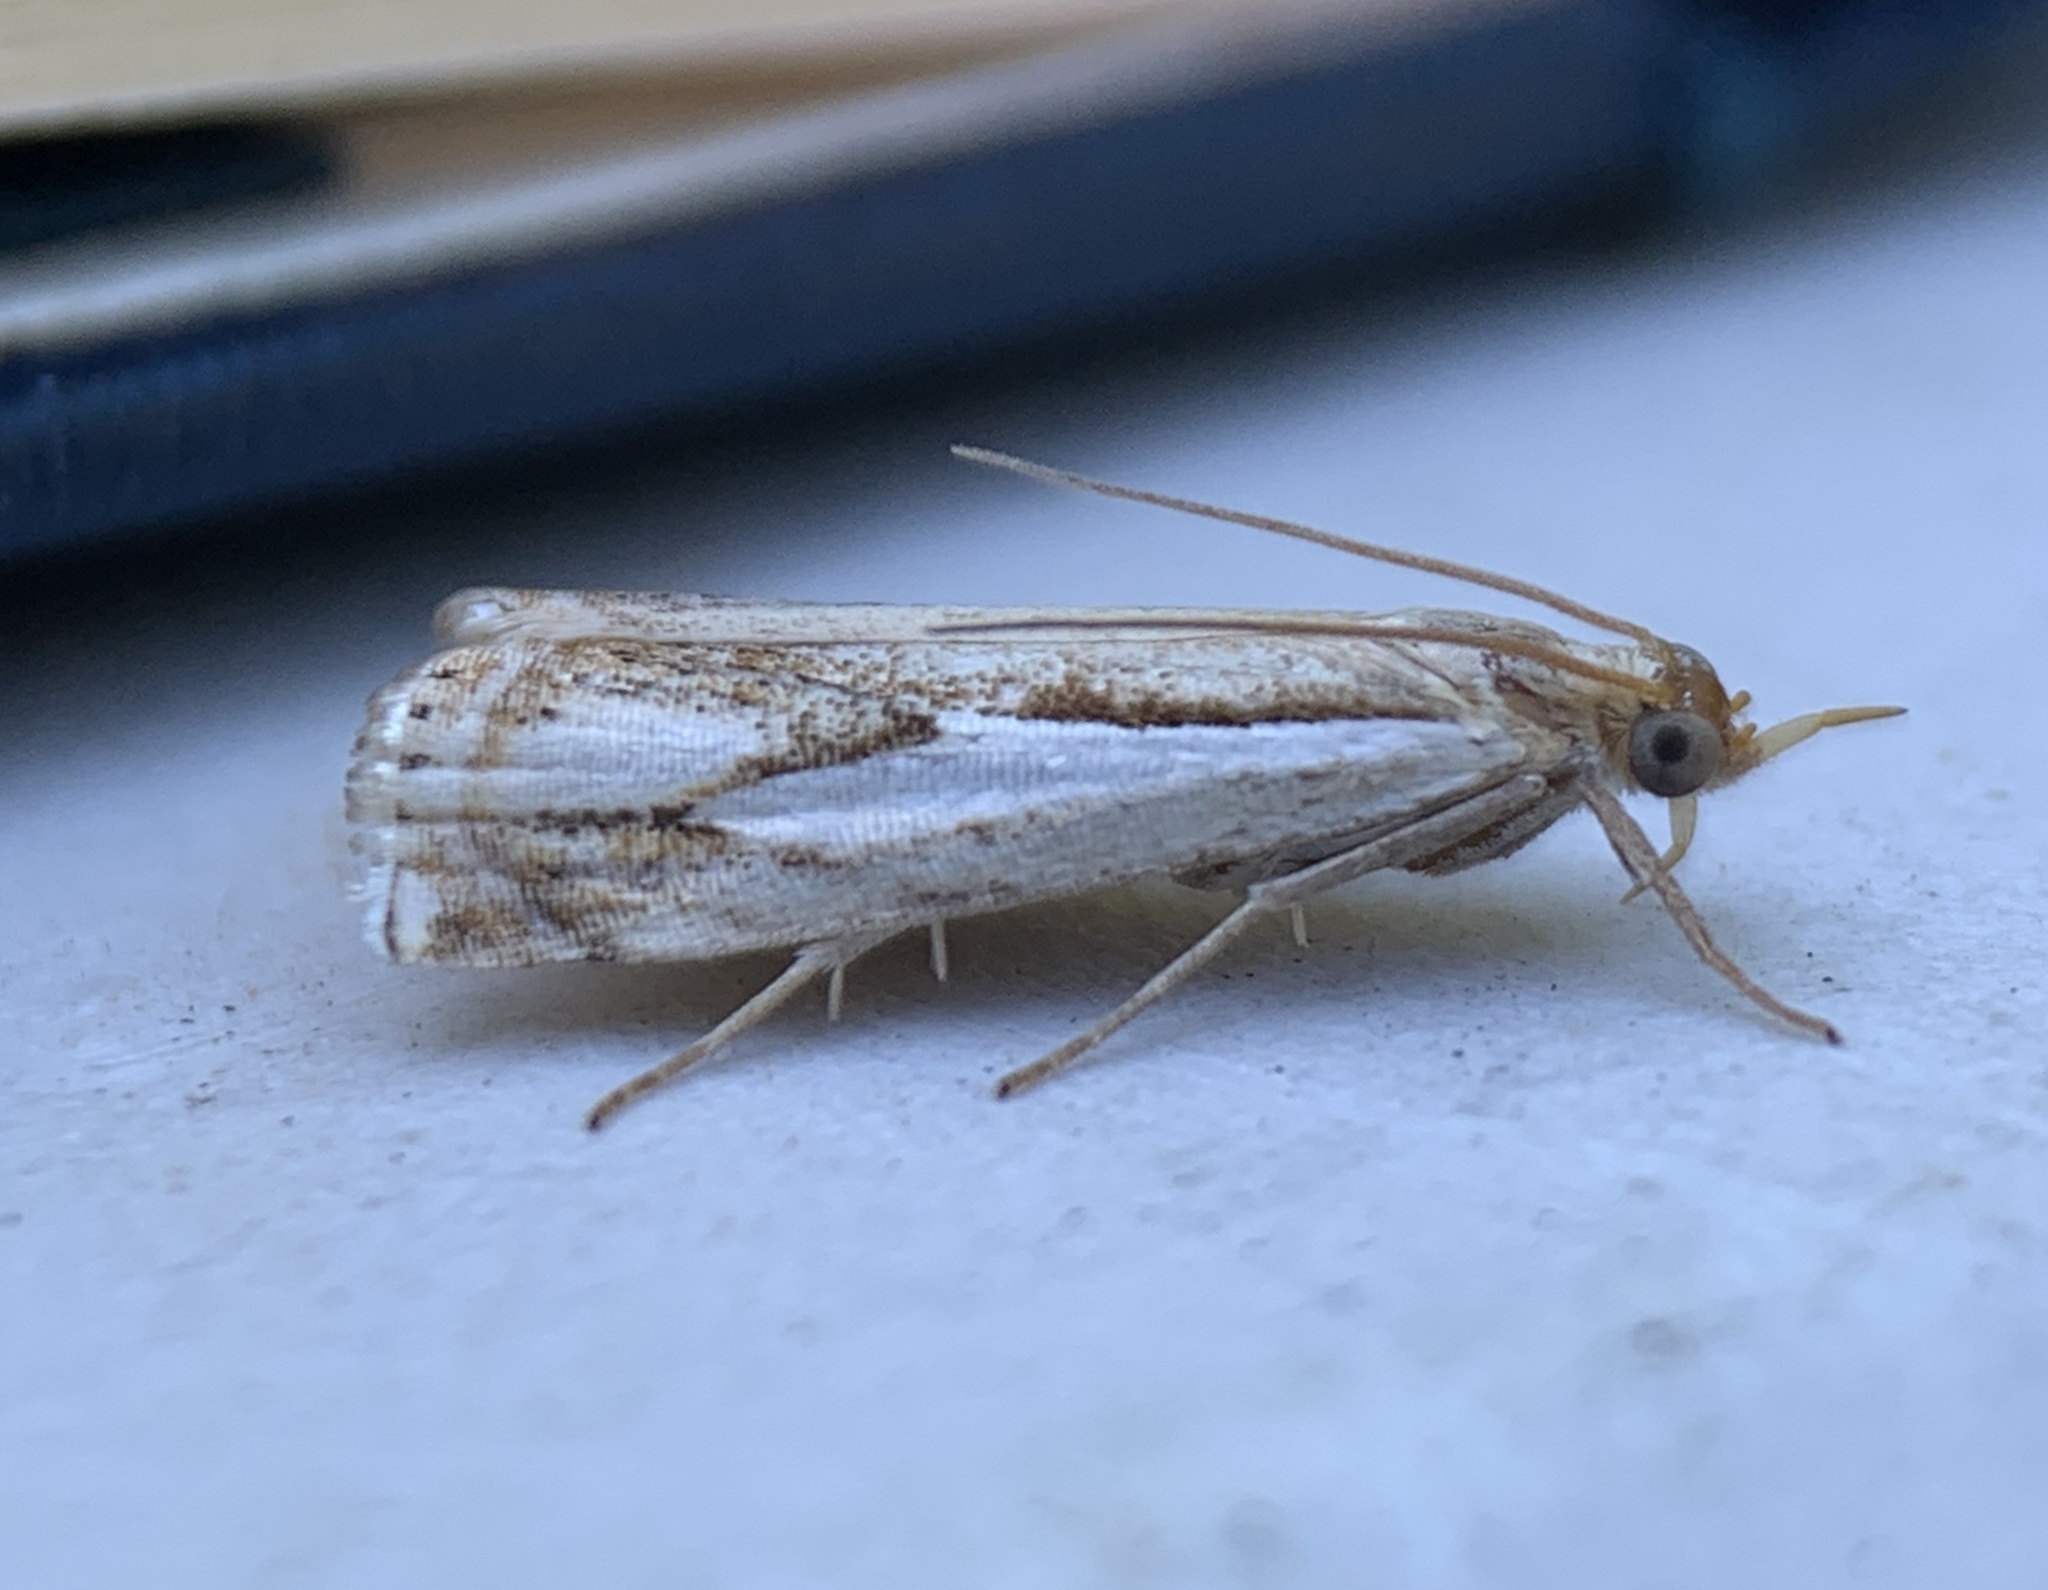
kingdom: Animalia
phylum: Arthropoda
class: Insecta
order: Lepidoptera
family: Crambidae
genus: Crambus
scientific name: Crambus agitatellus
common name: Double-banded grass-veneer
